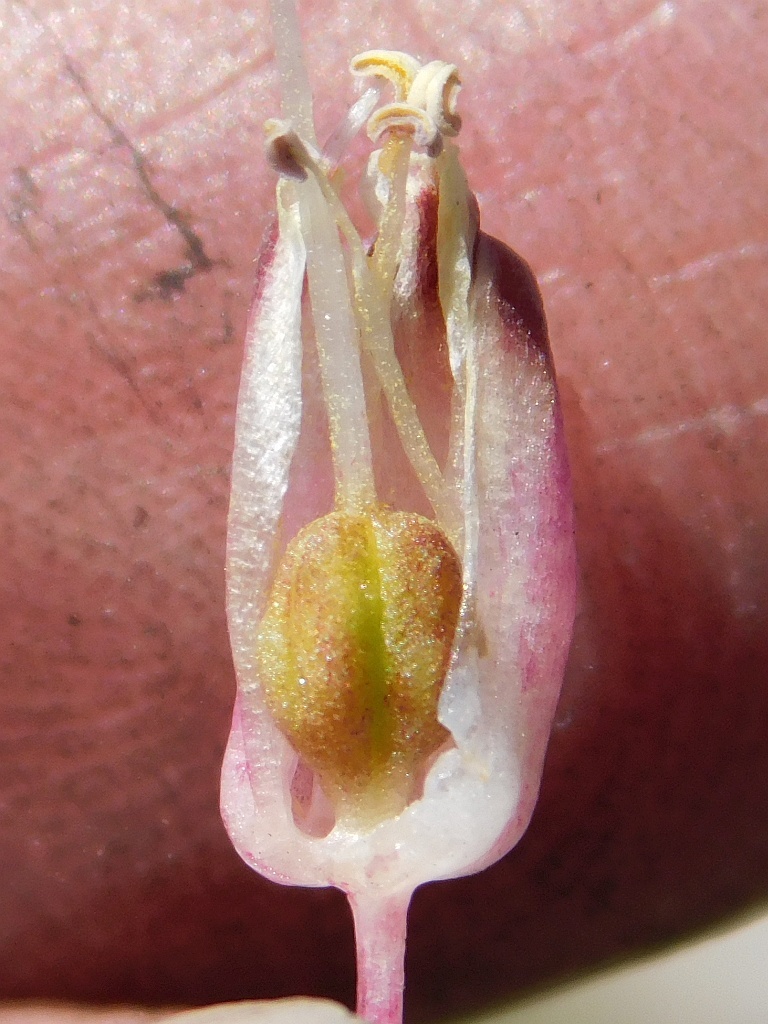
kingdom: Plantae
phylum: Tracheophyta
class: Liliopsida
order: Asparagales
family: Asparagaceae
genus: Lachenalia
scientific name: Lachenalia montana
